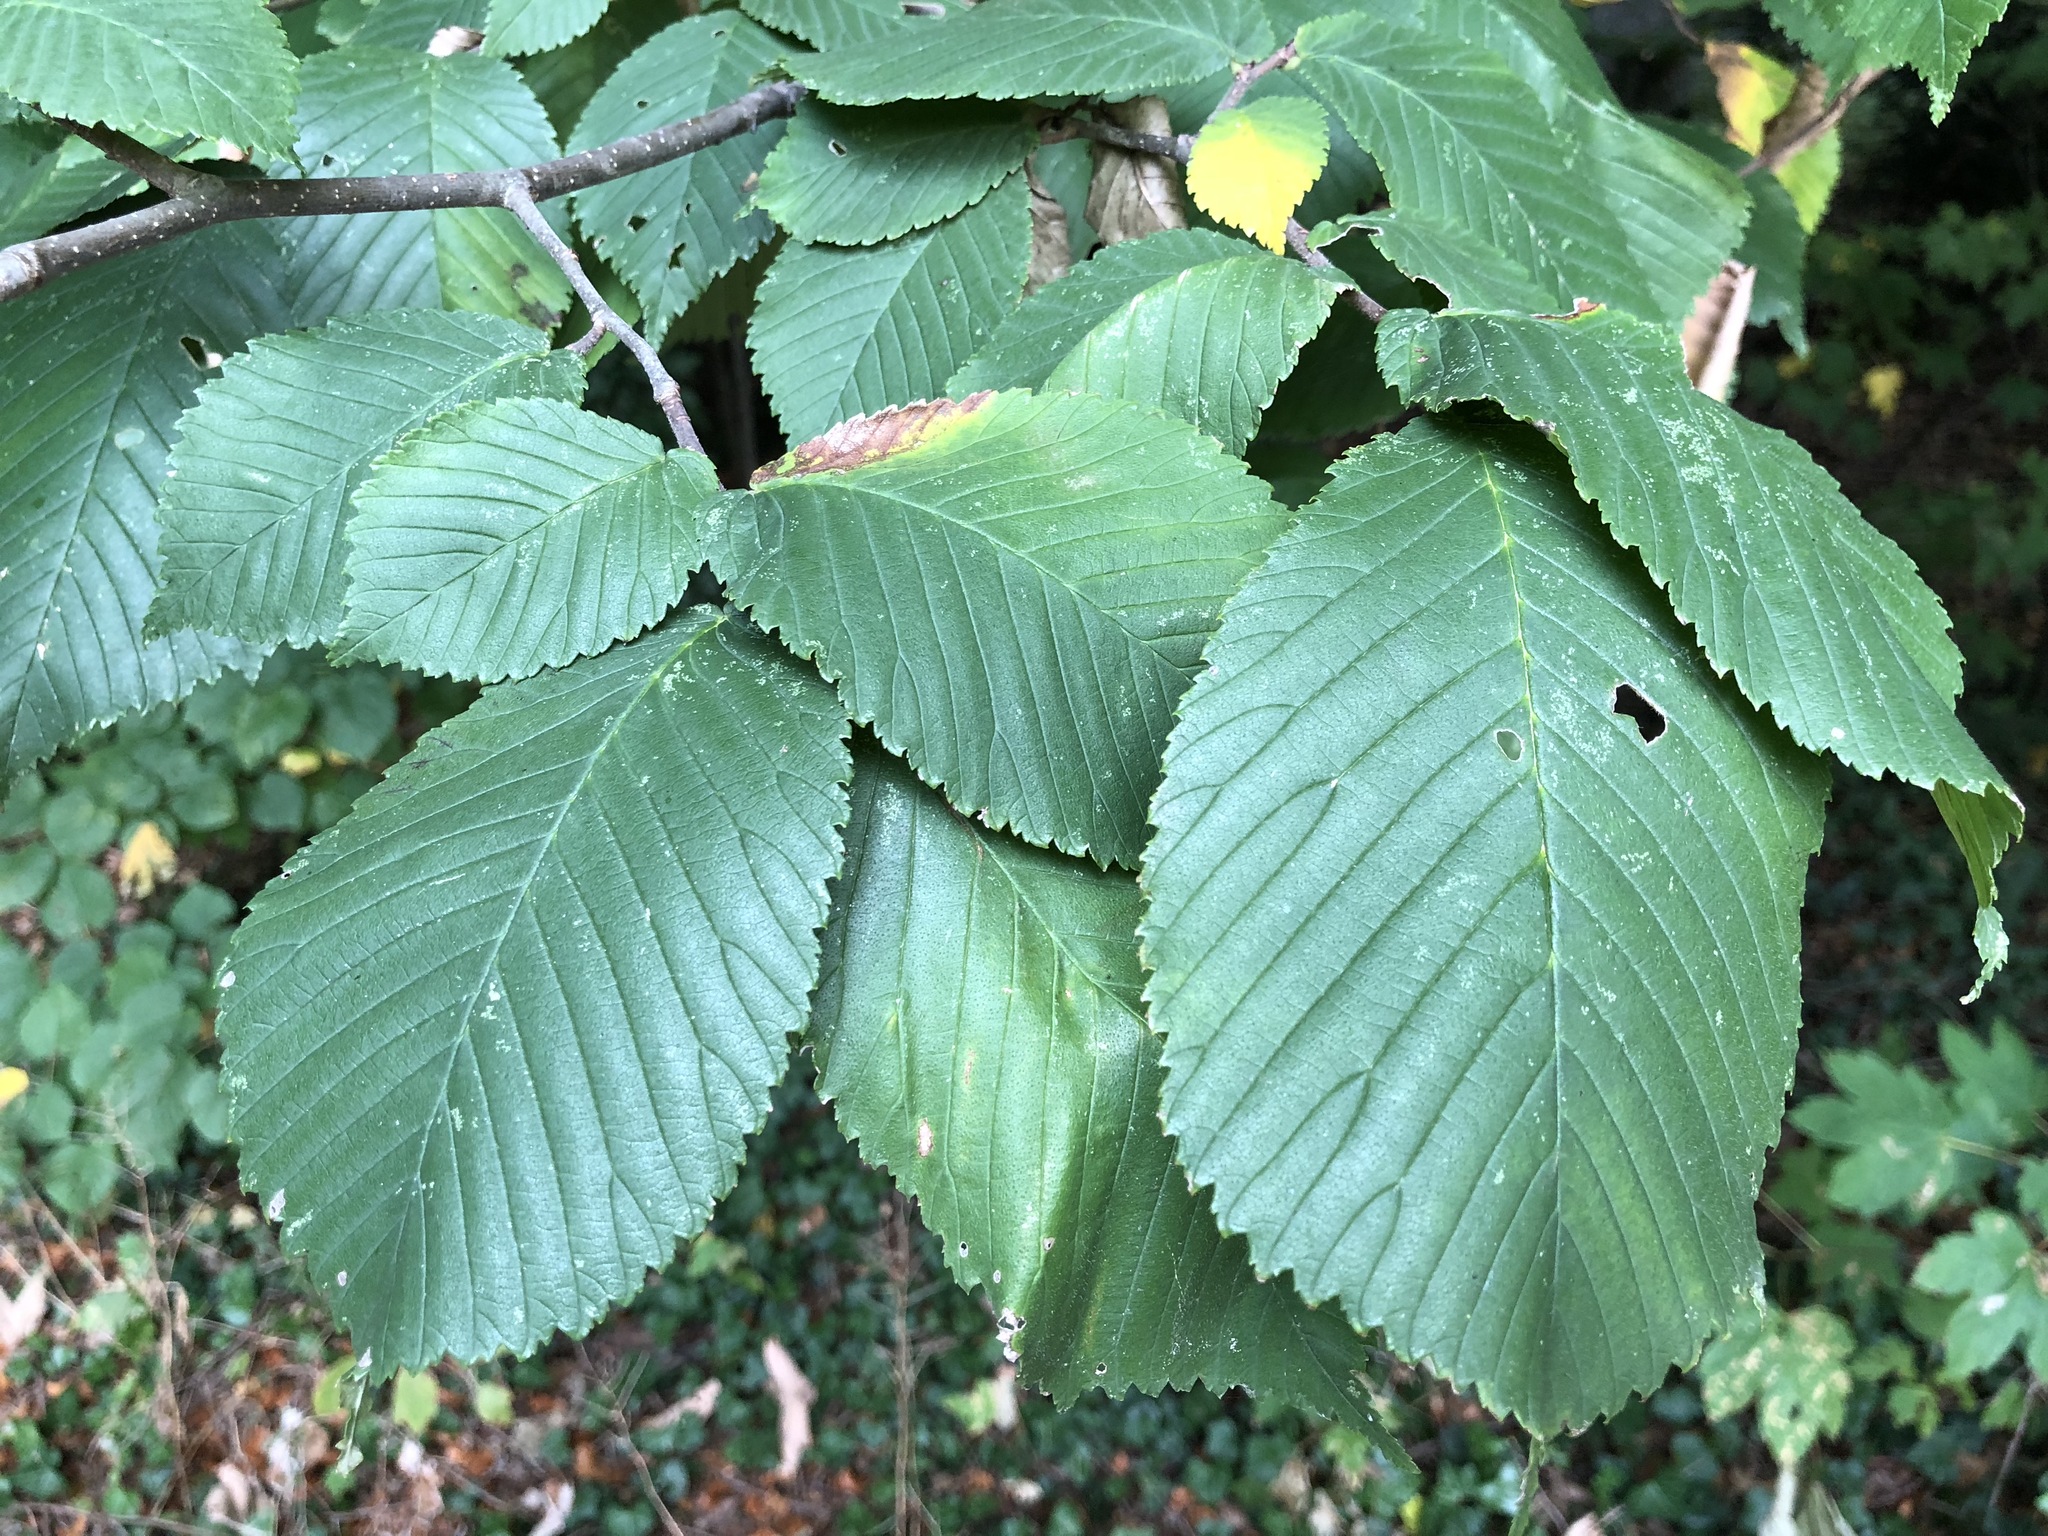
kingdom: Plantae
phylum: Tracheophyta
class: Magnoliopsida
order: Rosales
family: Ulmaceae
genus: Ulmus
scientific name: Ulmus glabra
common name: Wych elm
